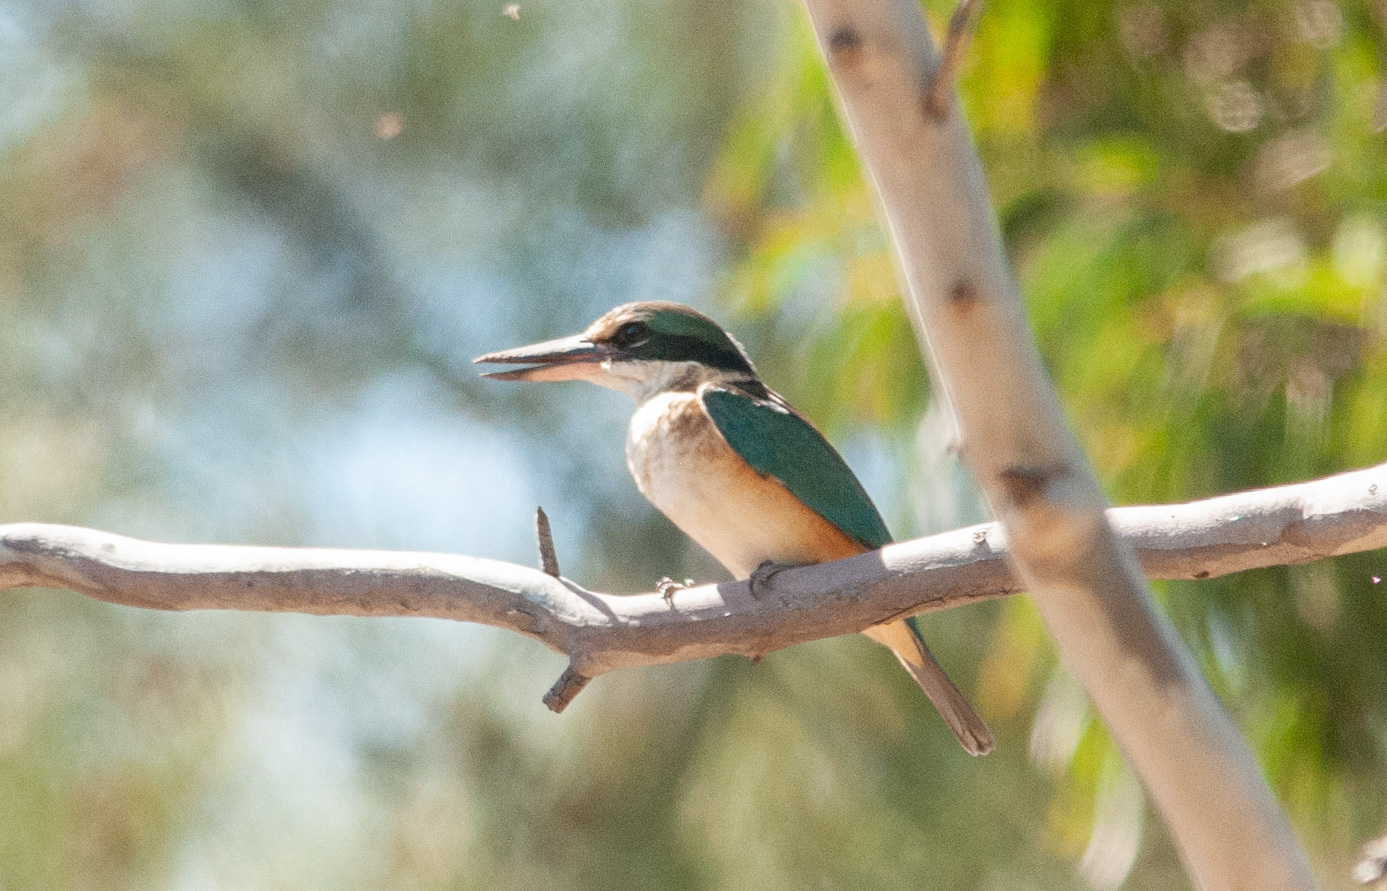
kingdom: Animalia
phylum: Chordata
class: Aves
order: Coraciiformes
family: Alcedinidae
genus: Todiramphus
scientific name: Todiramphus sanctus
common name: Sacred kingfisher
